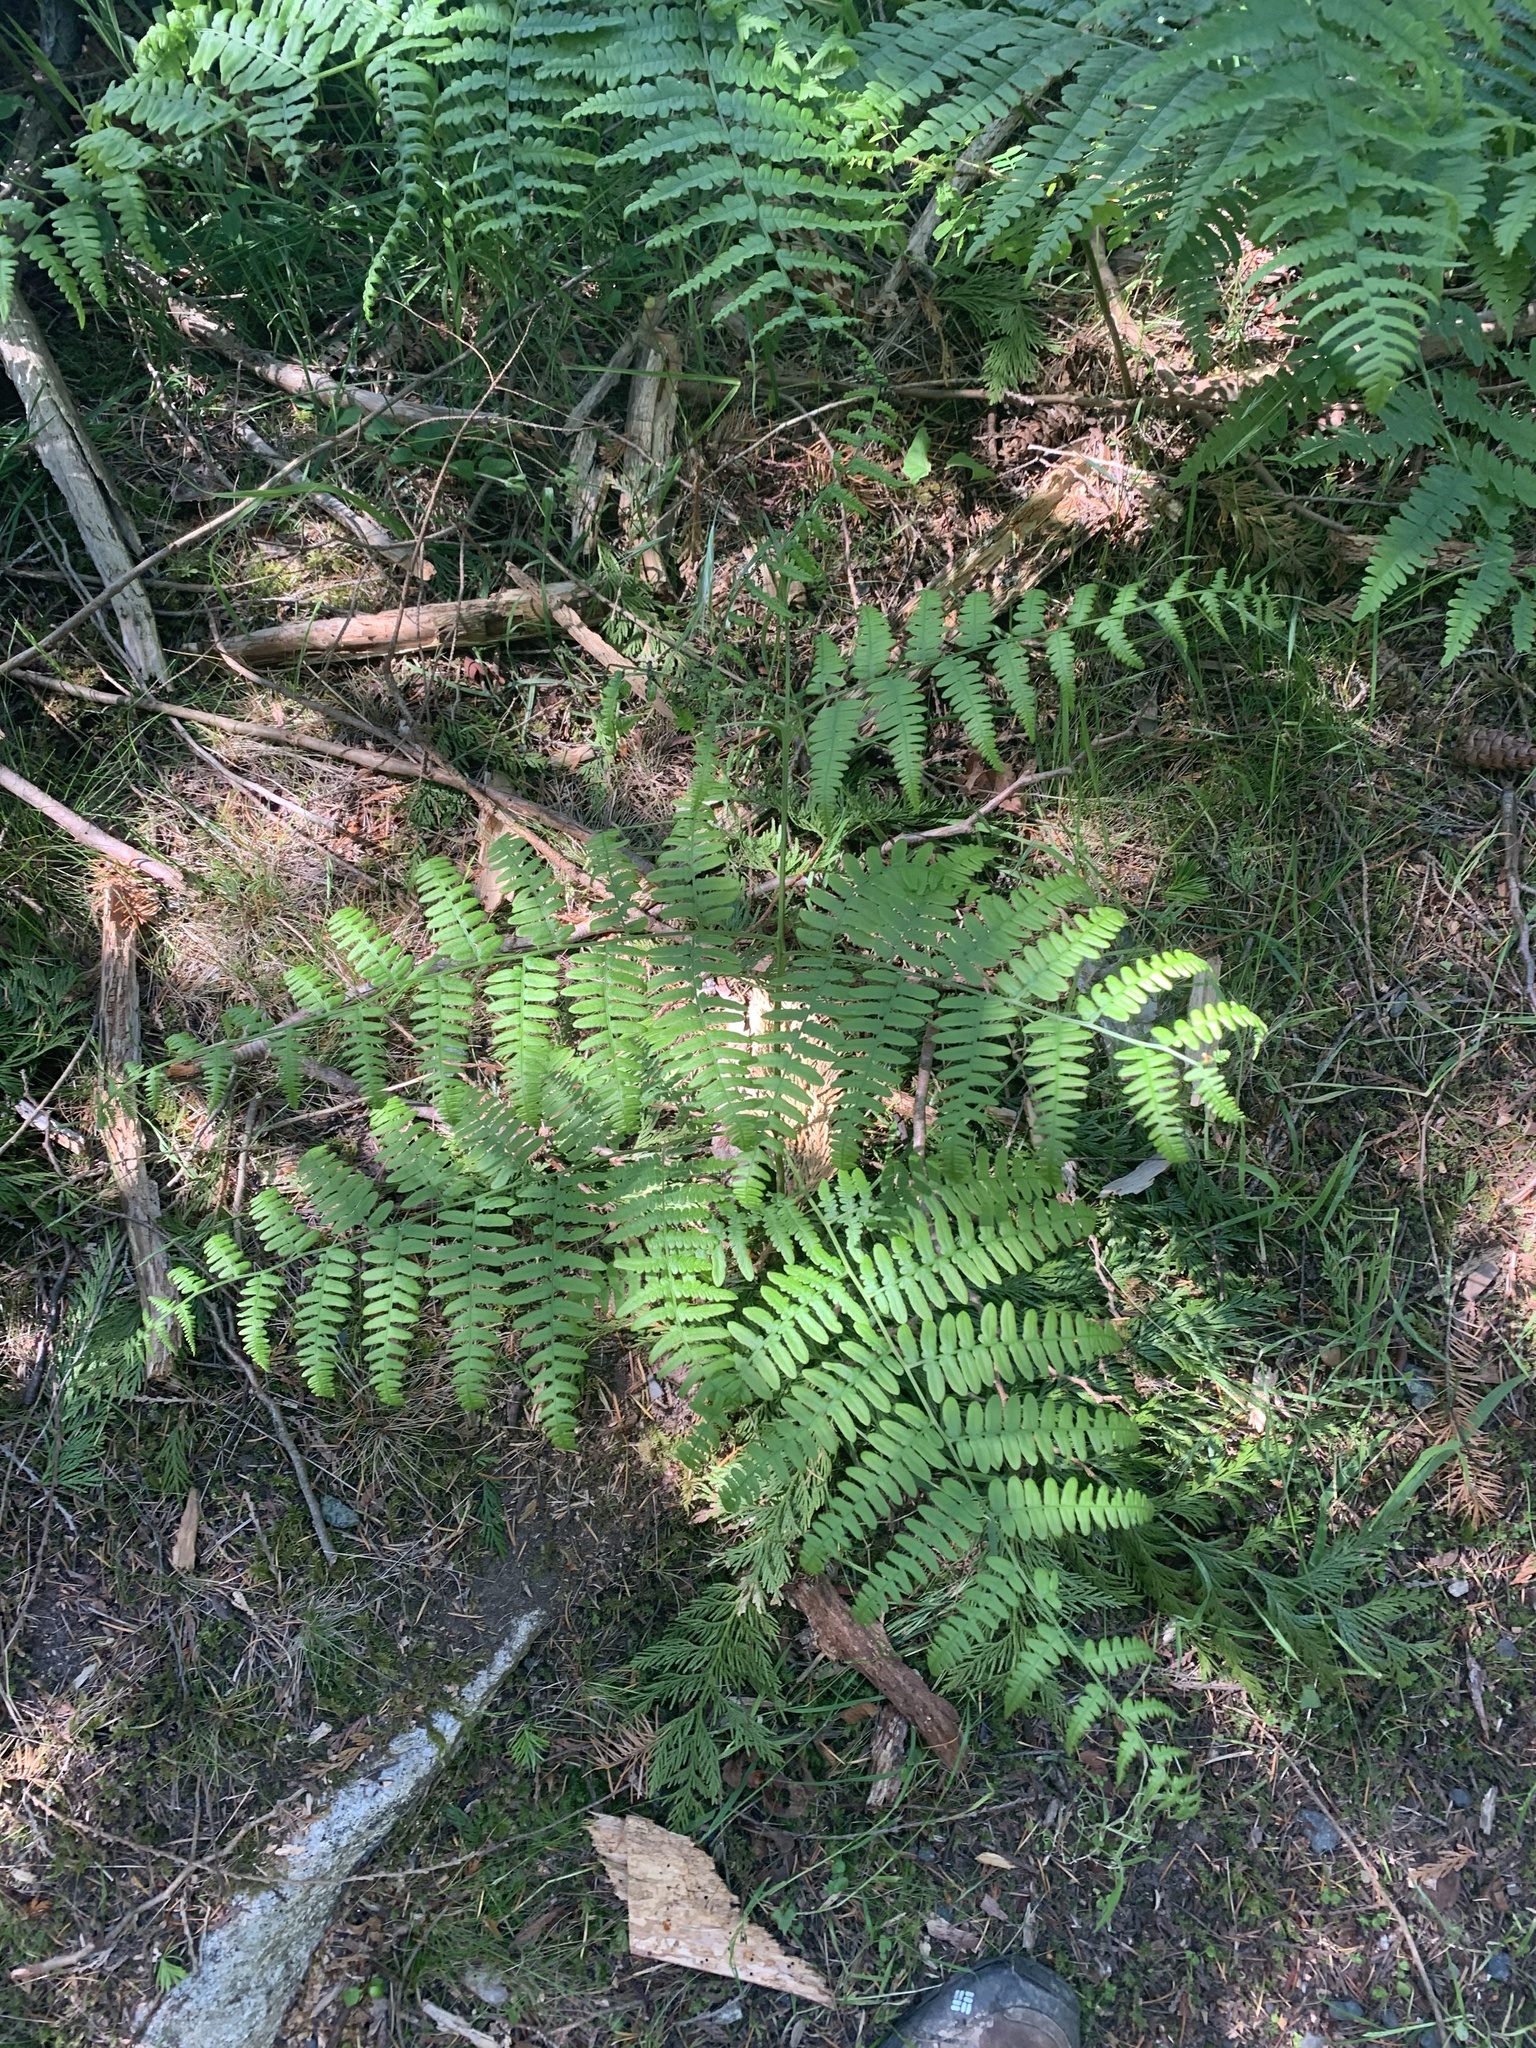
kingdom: Plantae
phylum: Tracheophyta
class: Polypodiopsida
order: Polypodiales
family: Dennstaedtiaceae
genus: Pteridium
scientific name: Pteridium aquilinum
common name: Bracken
